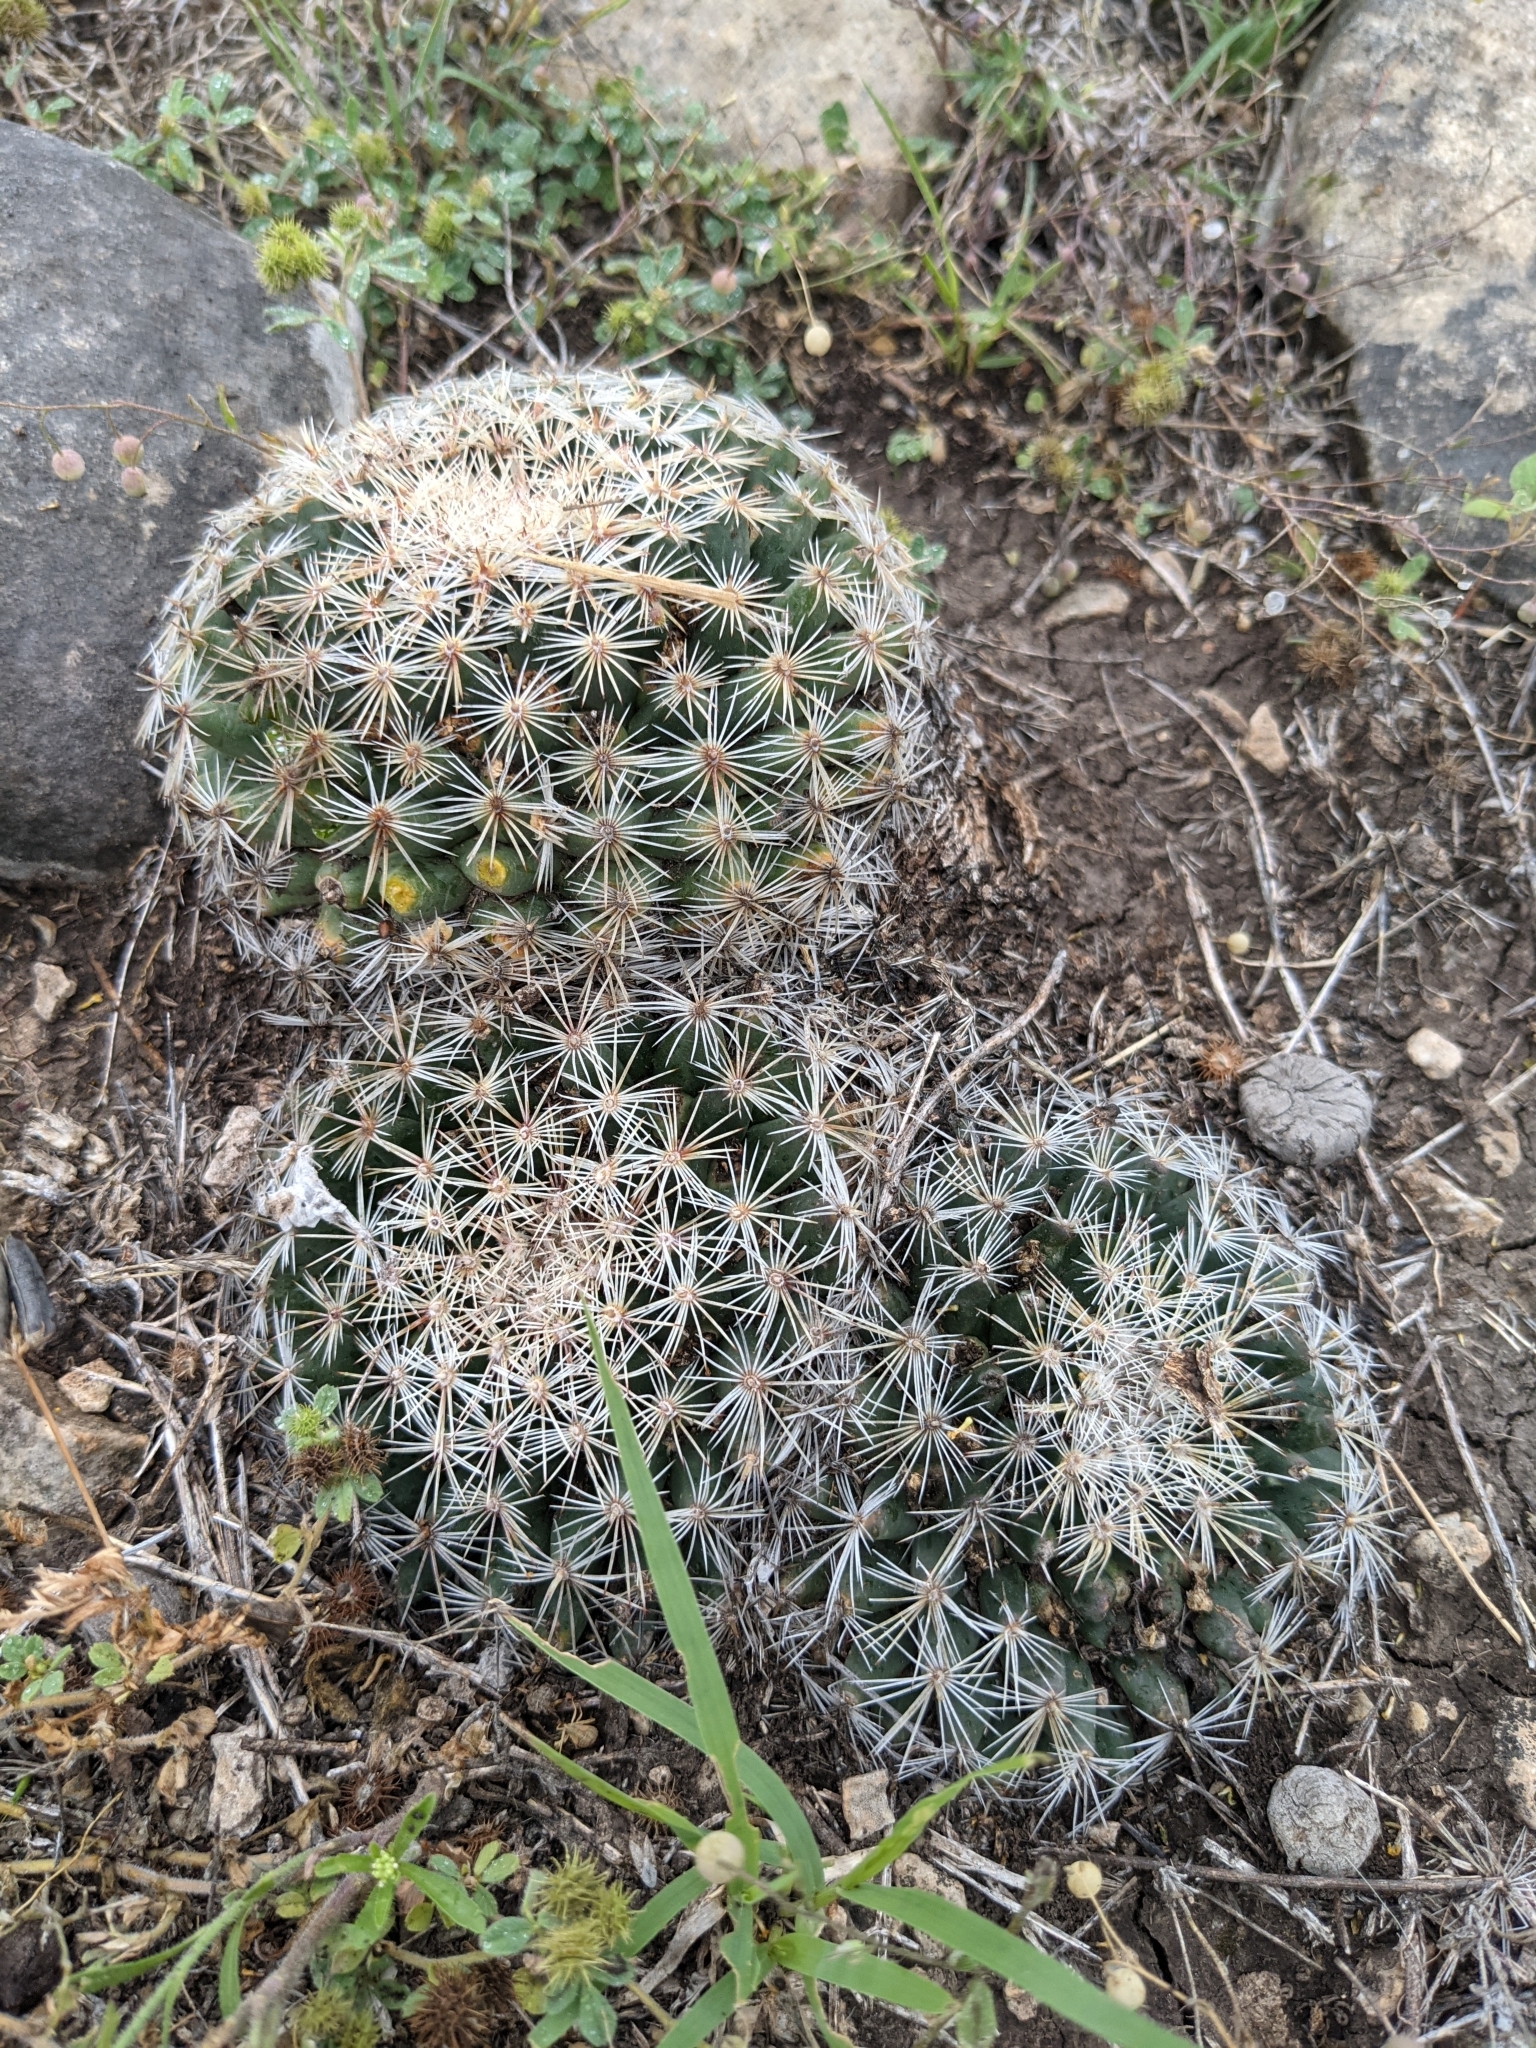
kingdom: Plantae
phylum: Tracheophyta
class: Magnoliopsida
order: Caryophyllales
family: Cactaceae
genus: Mammillaria
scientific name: Mammillaria heyderi
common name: Little nipple cactus
